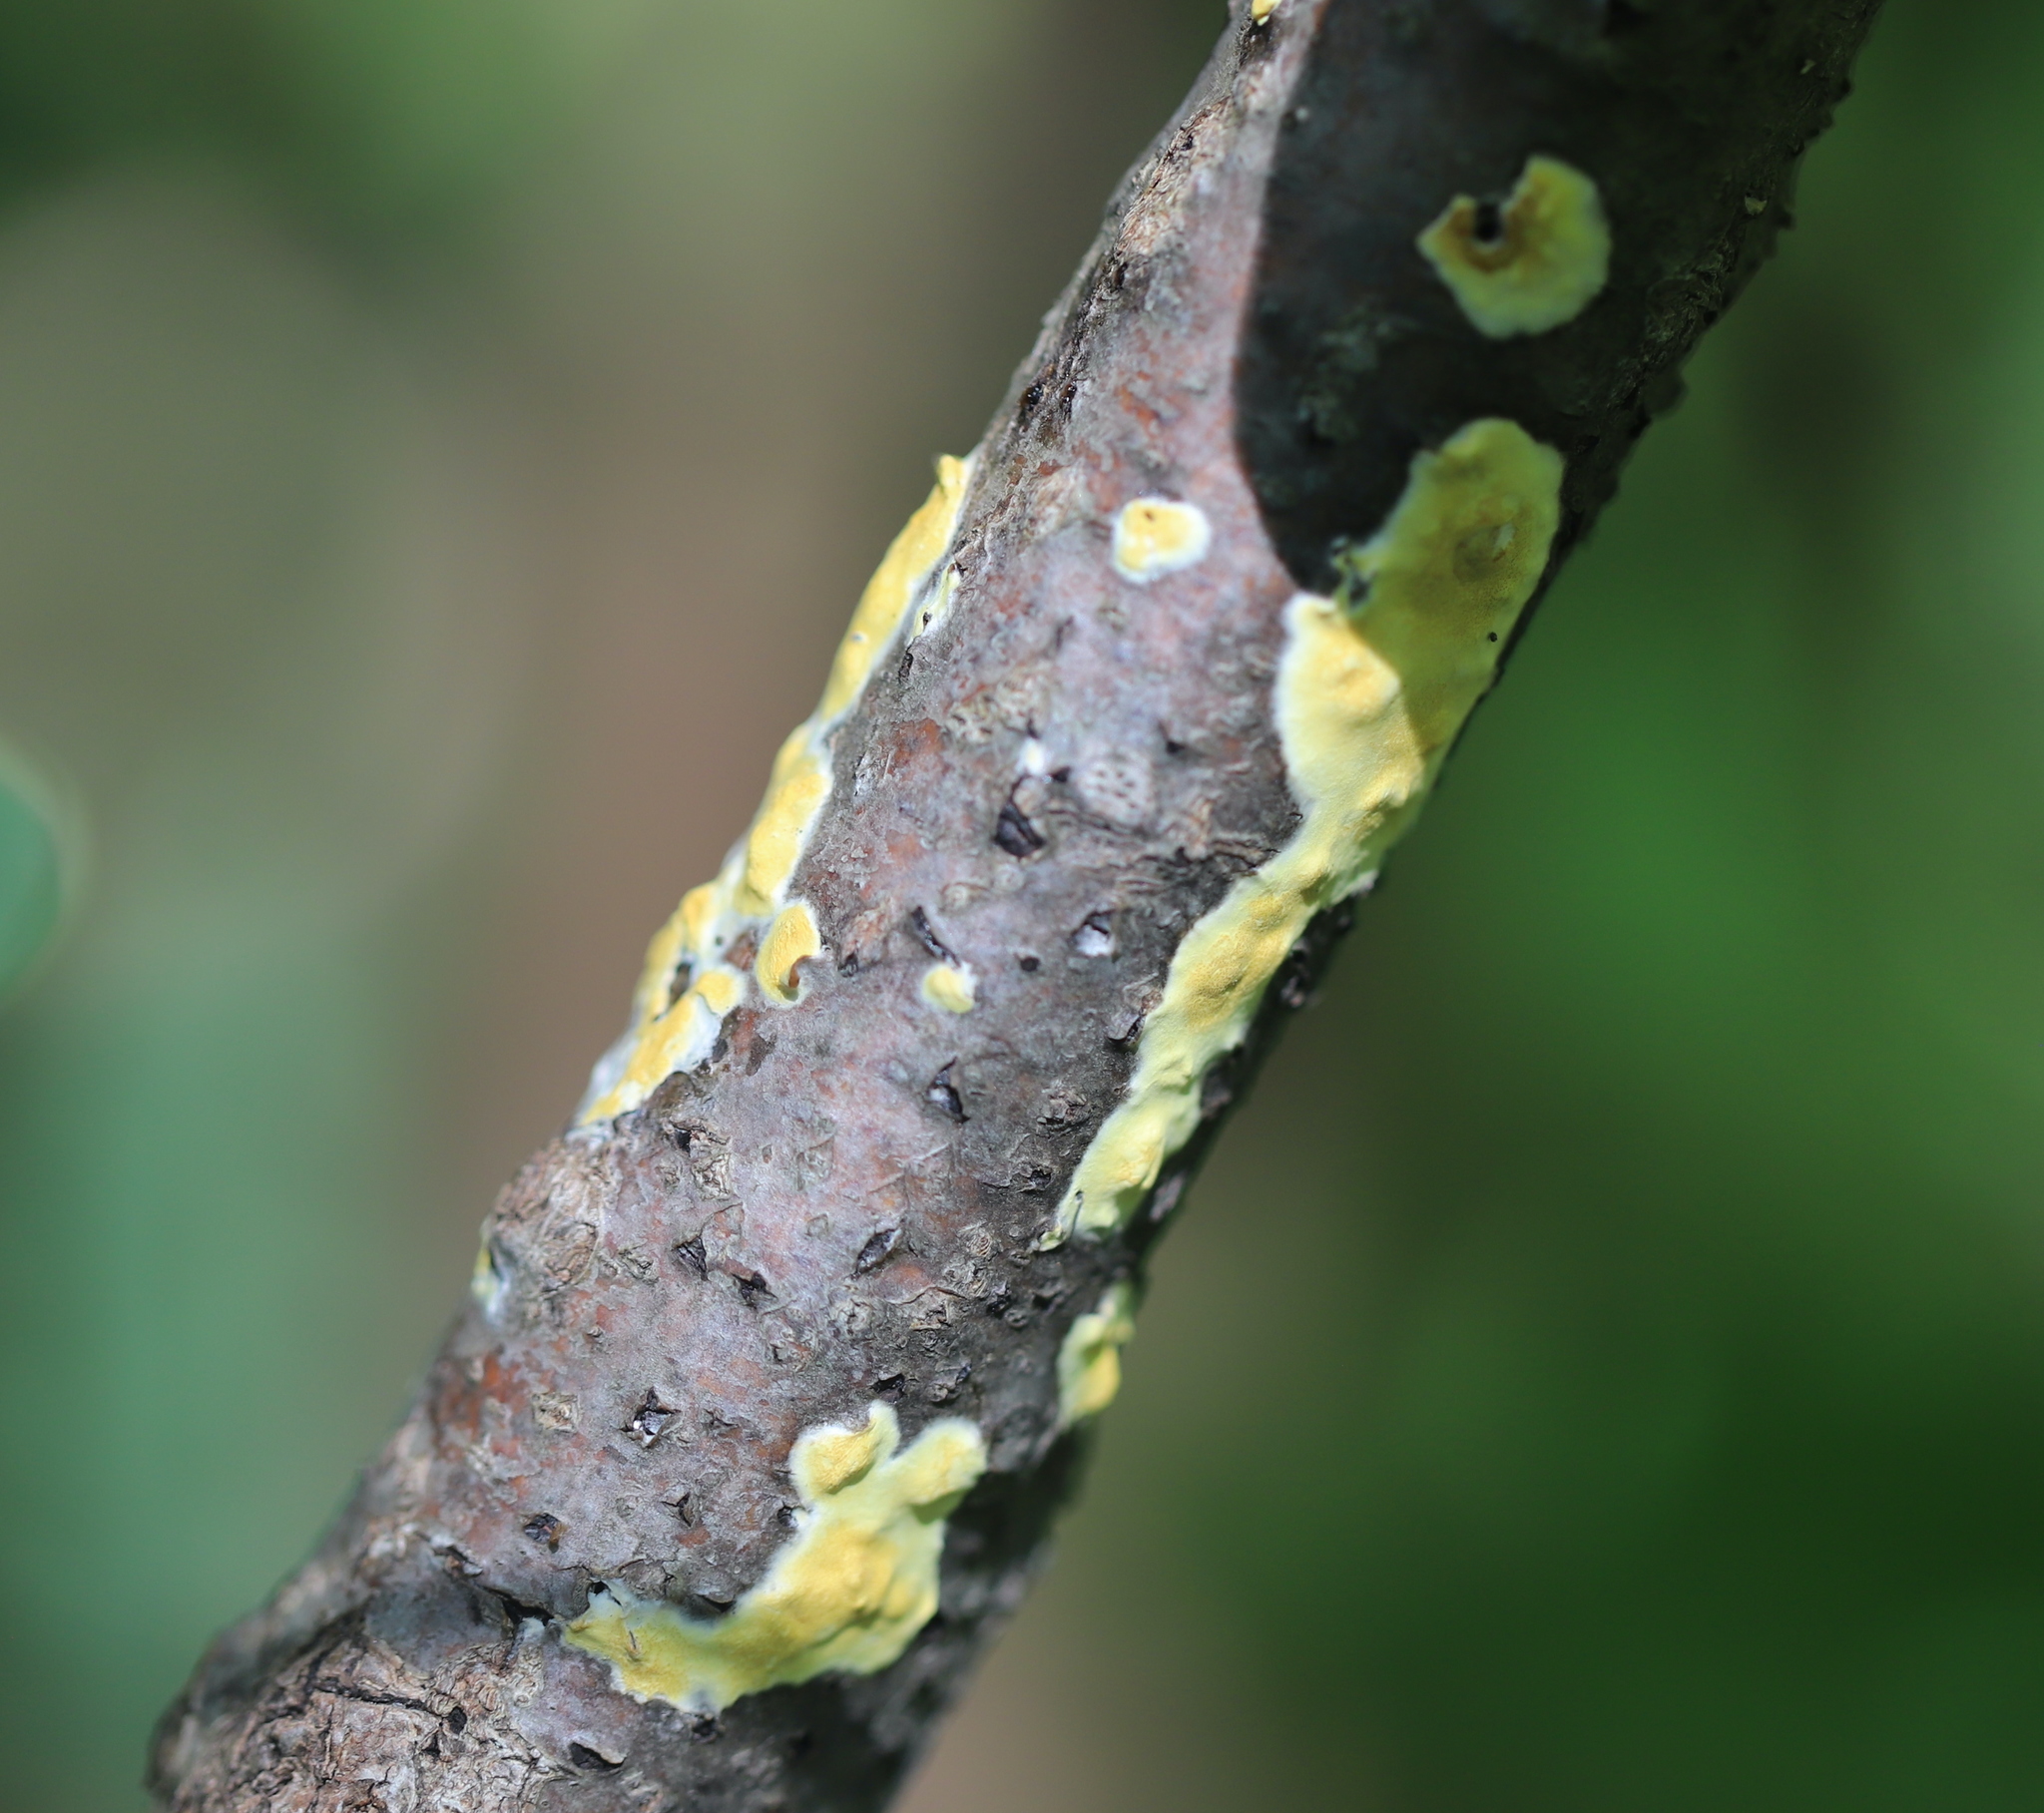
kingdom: Fungi
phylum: Ascomycota
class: Sordariomycetes
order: Hypocreales
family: Hypocreaceae
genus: Trichoderma
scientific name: Trichoderma sulphureum
